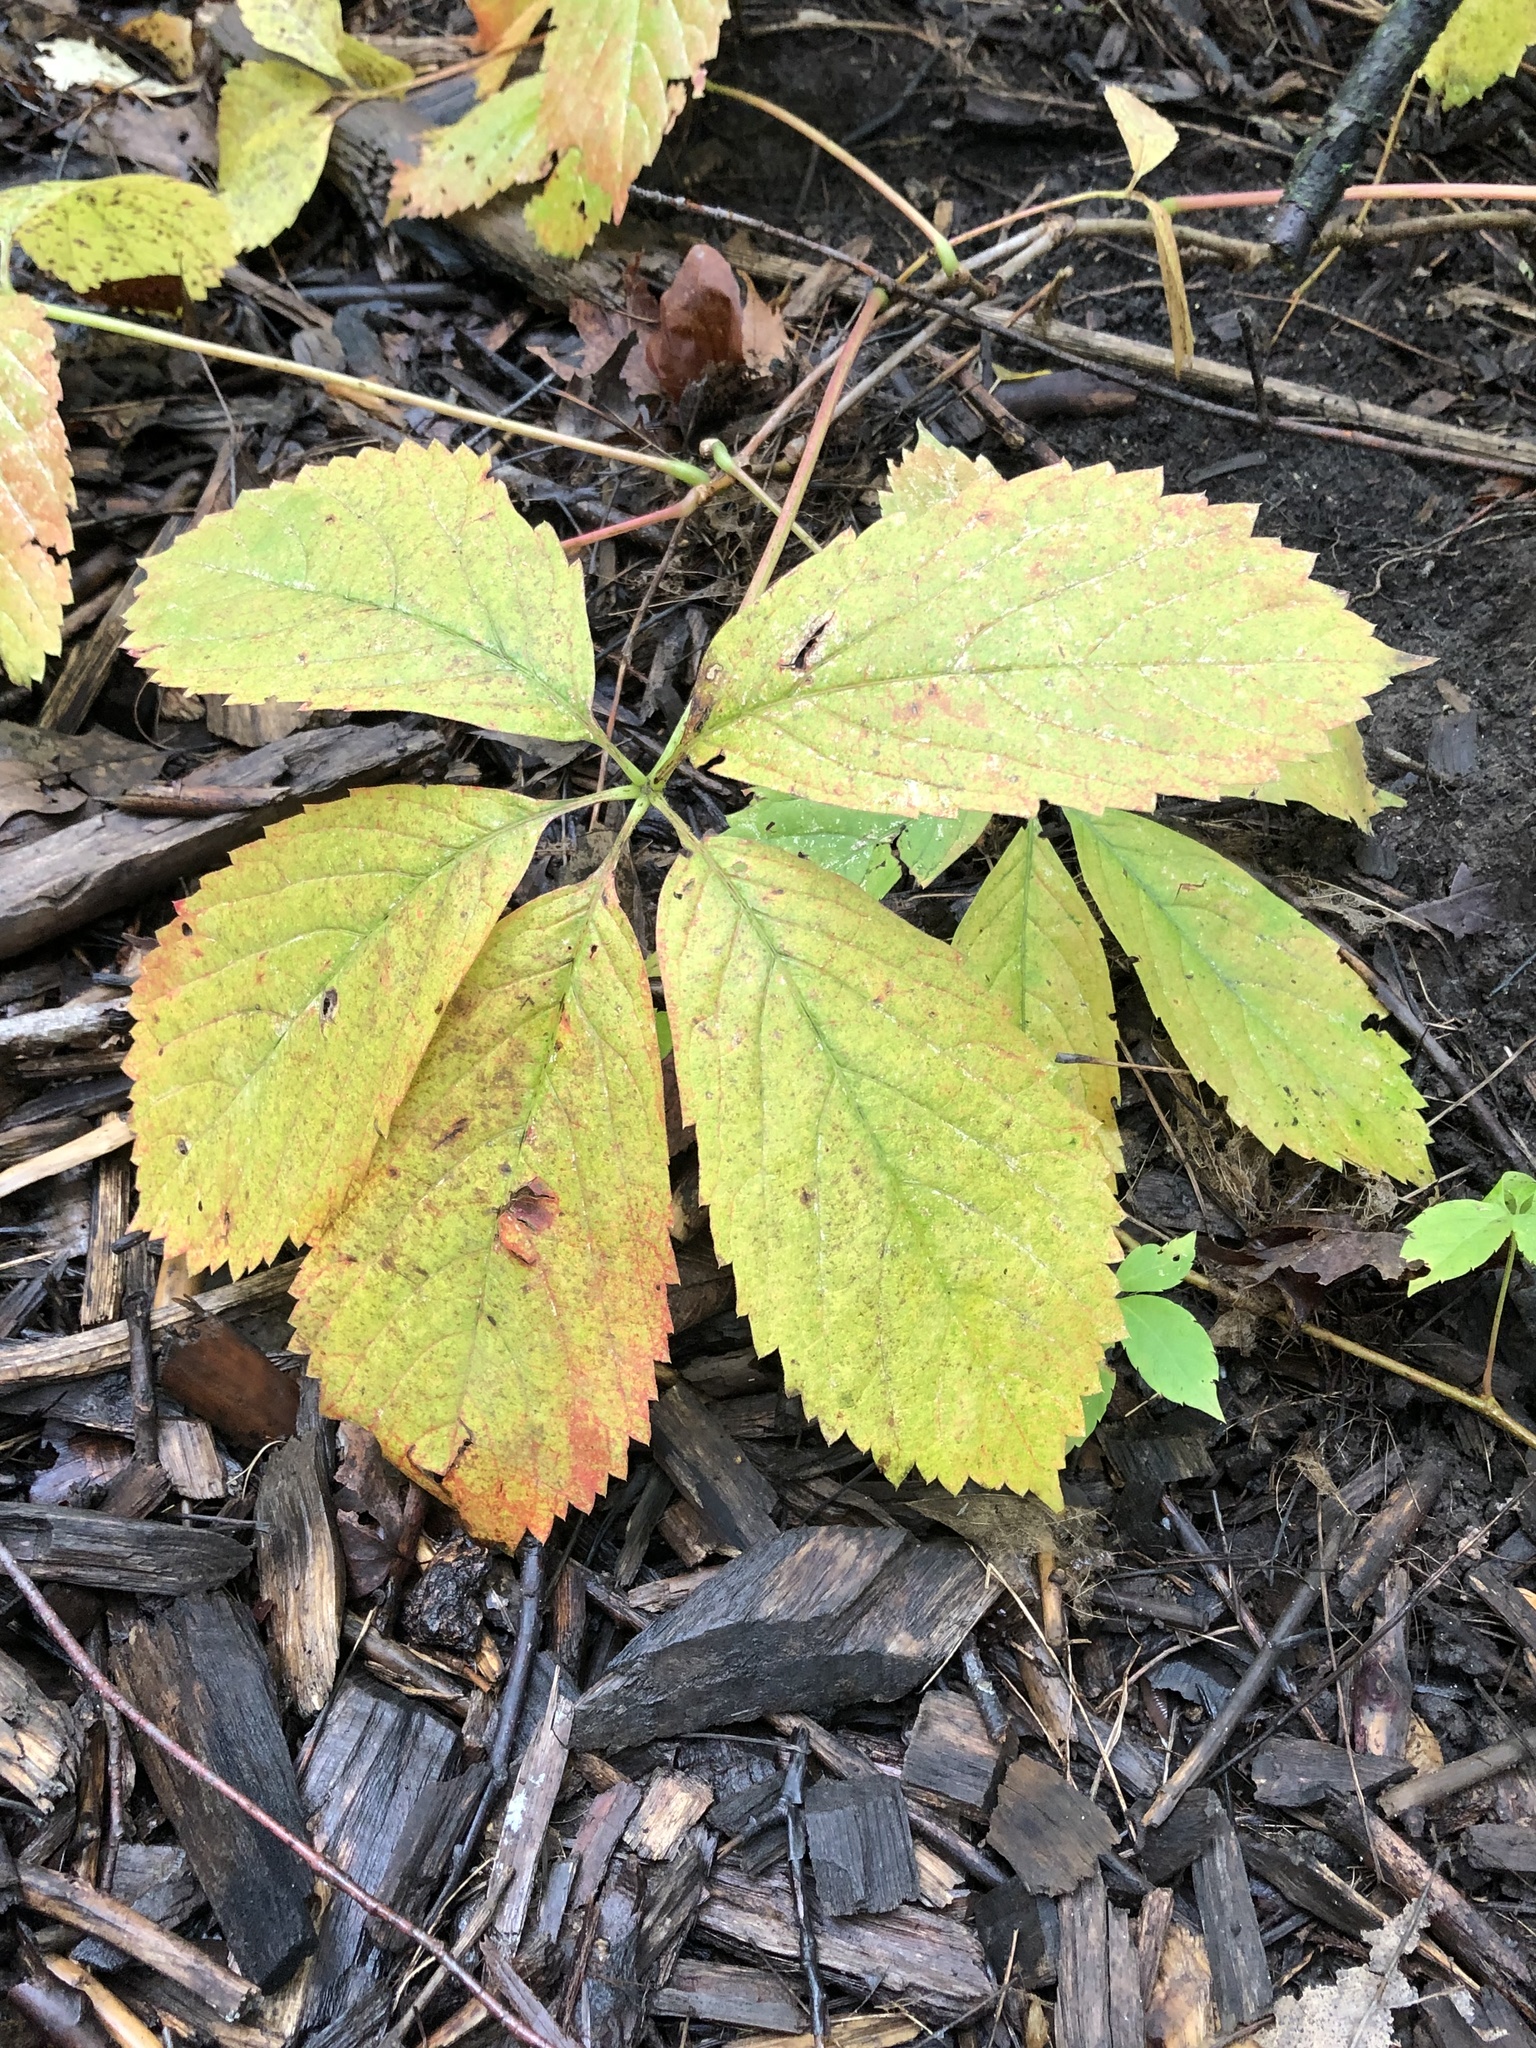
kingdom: Plantae
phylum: Tracheophyta
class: Magnoliopsida
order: Vitales
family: Vitaceae
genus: Parthenocissus
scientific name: Parthenocissus inserta
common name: False virginia-creeper
